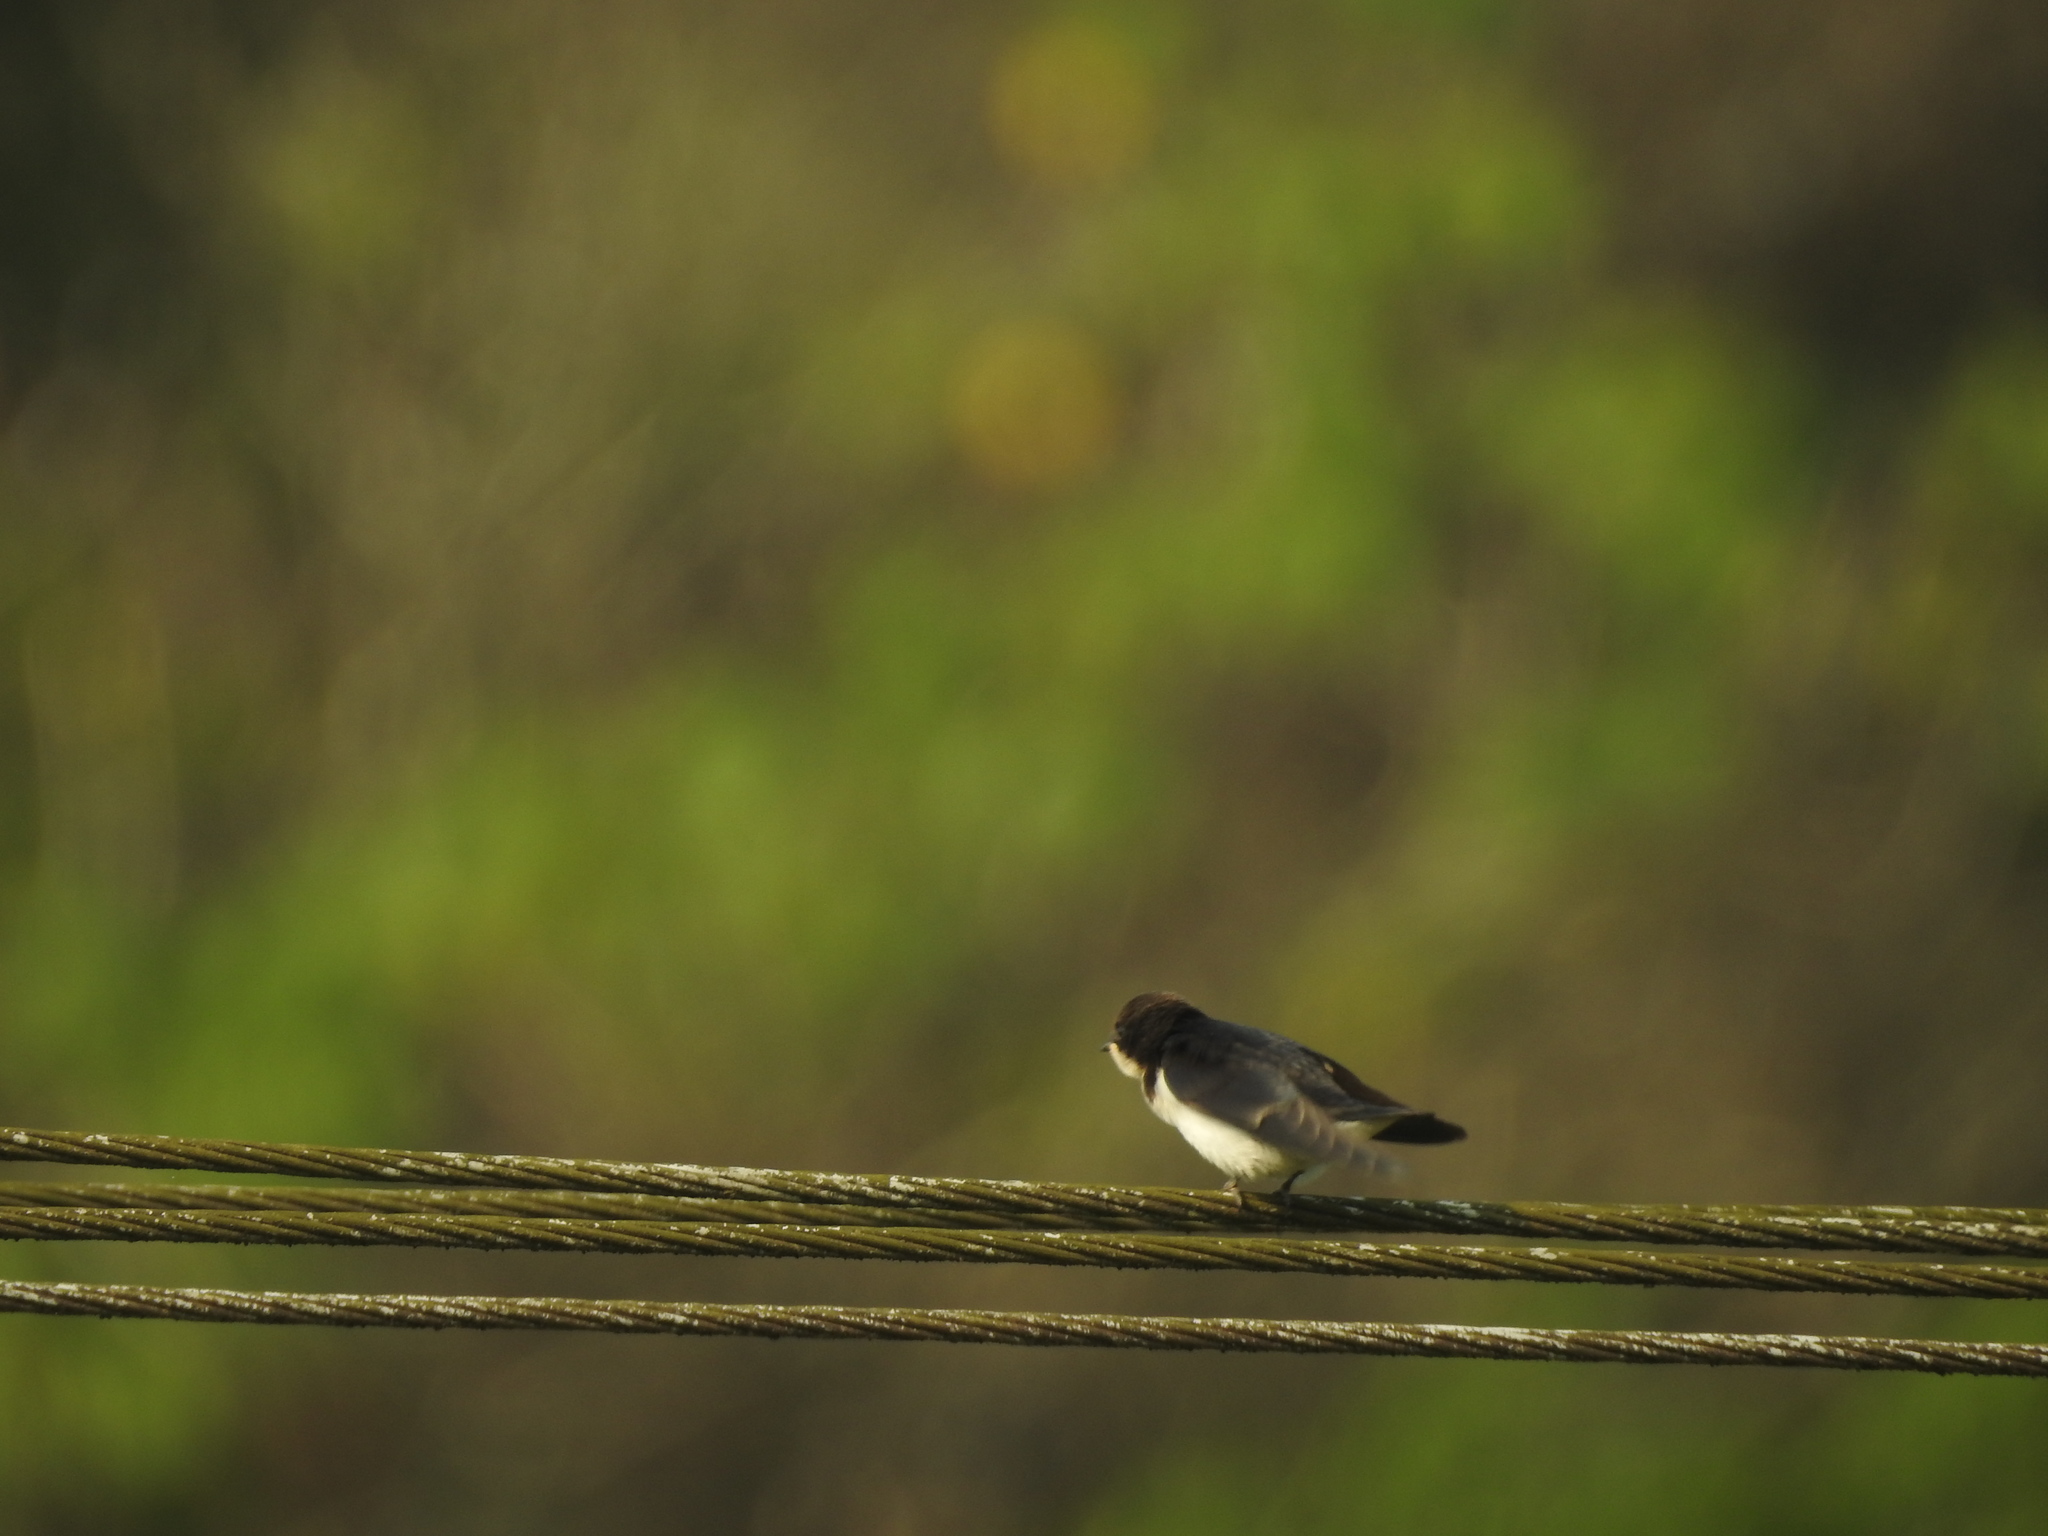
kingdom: Animalia
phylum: Chordata
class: Aves
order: Passeriformes
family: Hirundinidae
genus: Hirundo
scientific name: Hirundo smithii
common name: Wire-tailed swallow
